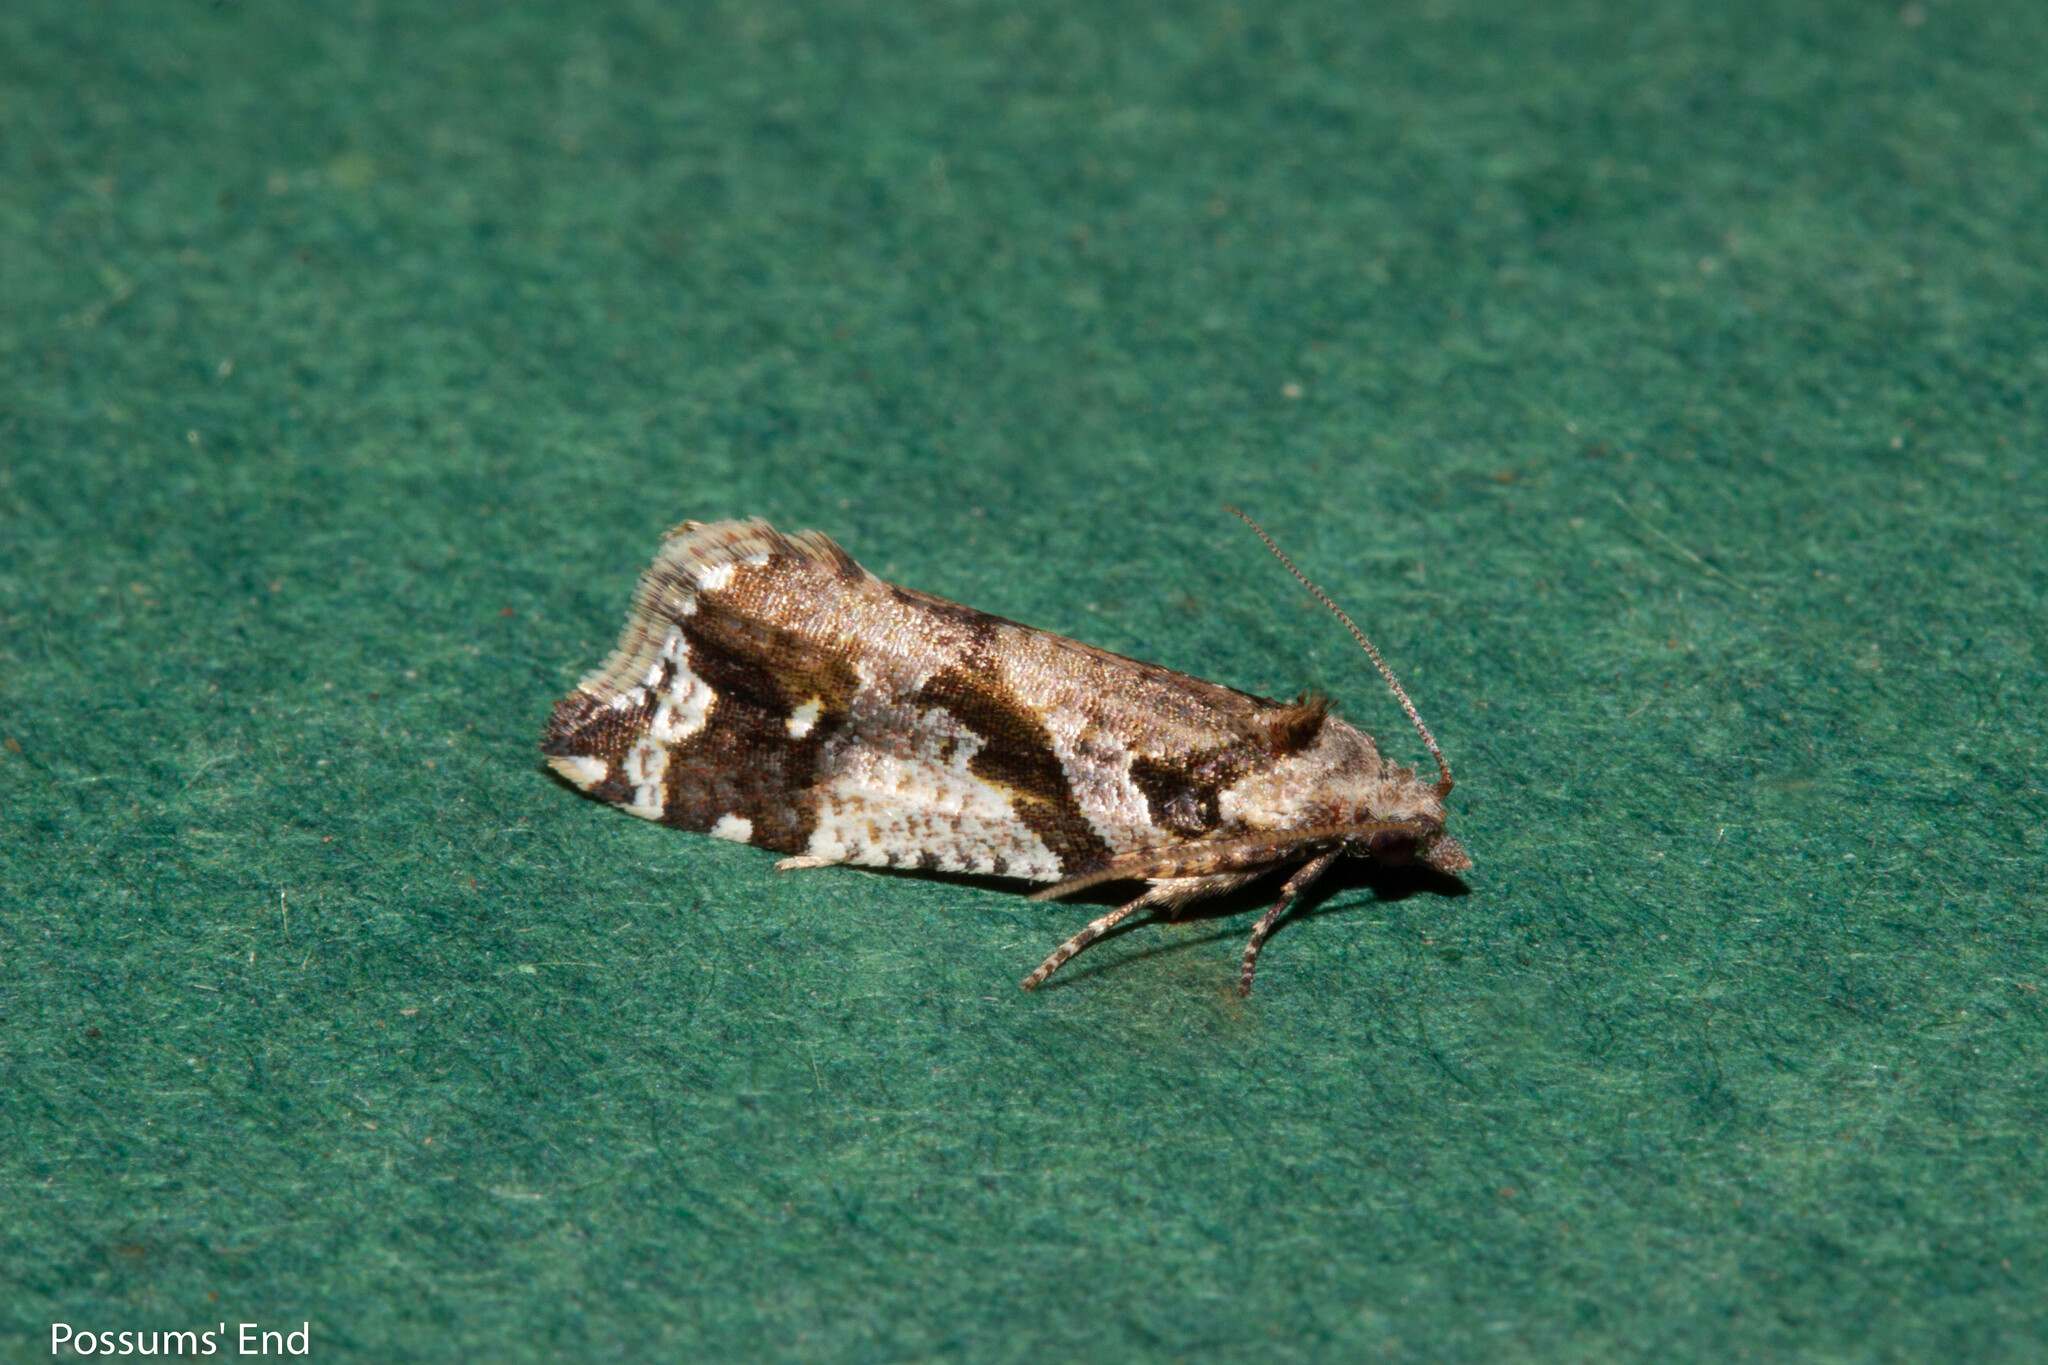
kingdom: Animalia
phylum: Arthropoda
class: Insecta
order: Lepidoptera
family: Tortricidae
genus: Pyrgotis
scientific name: Pyrgotis plagiatana
